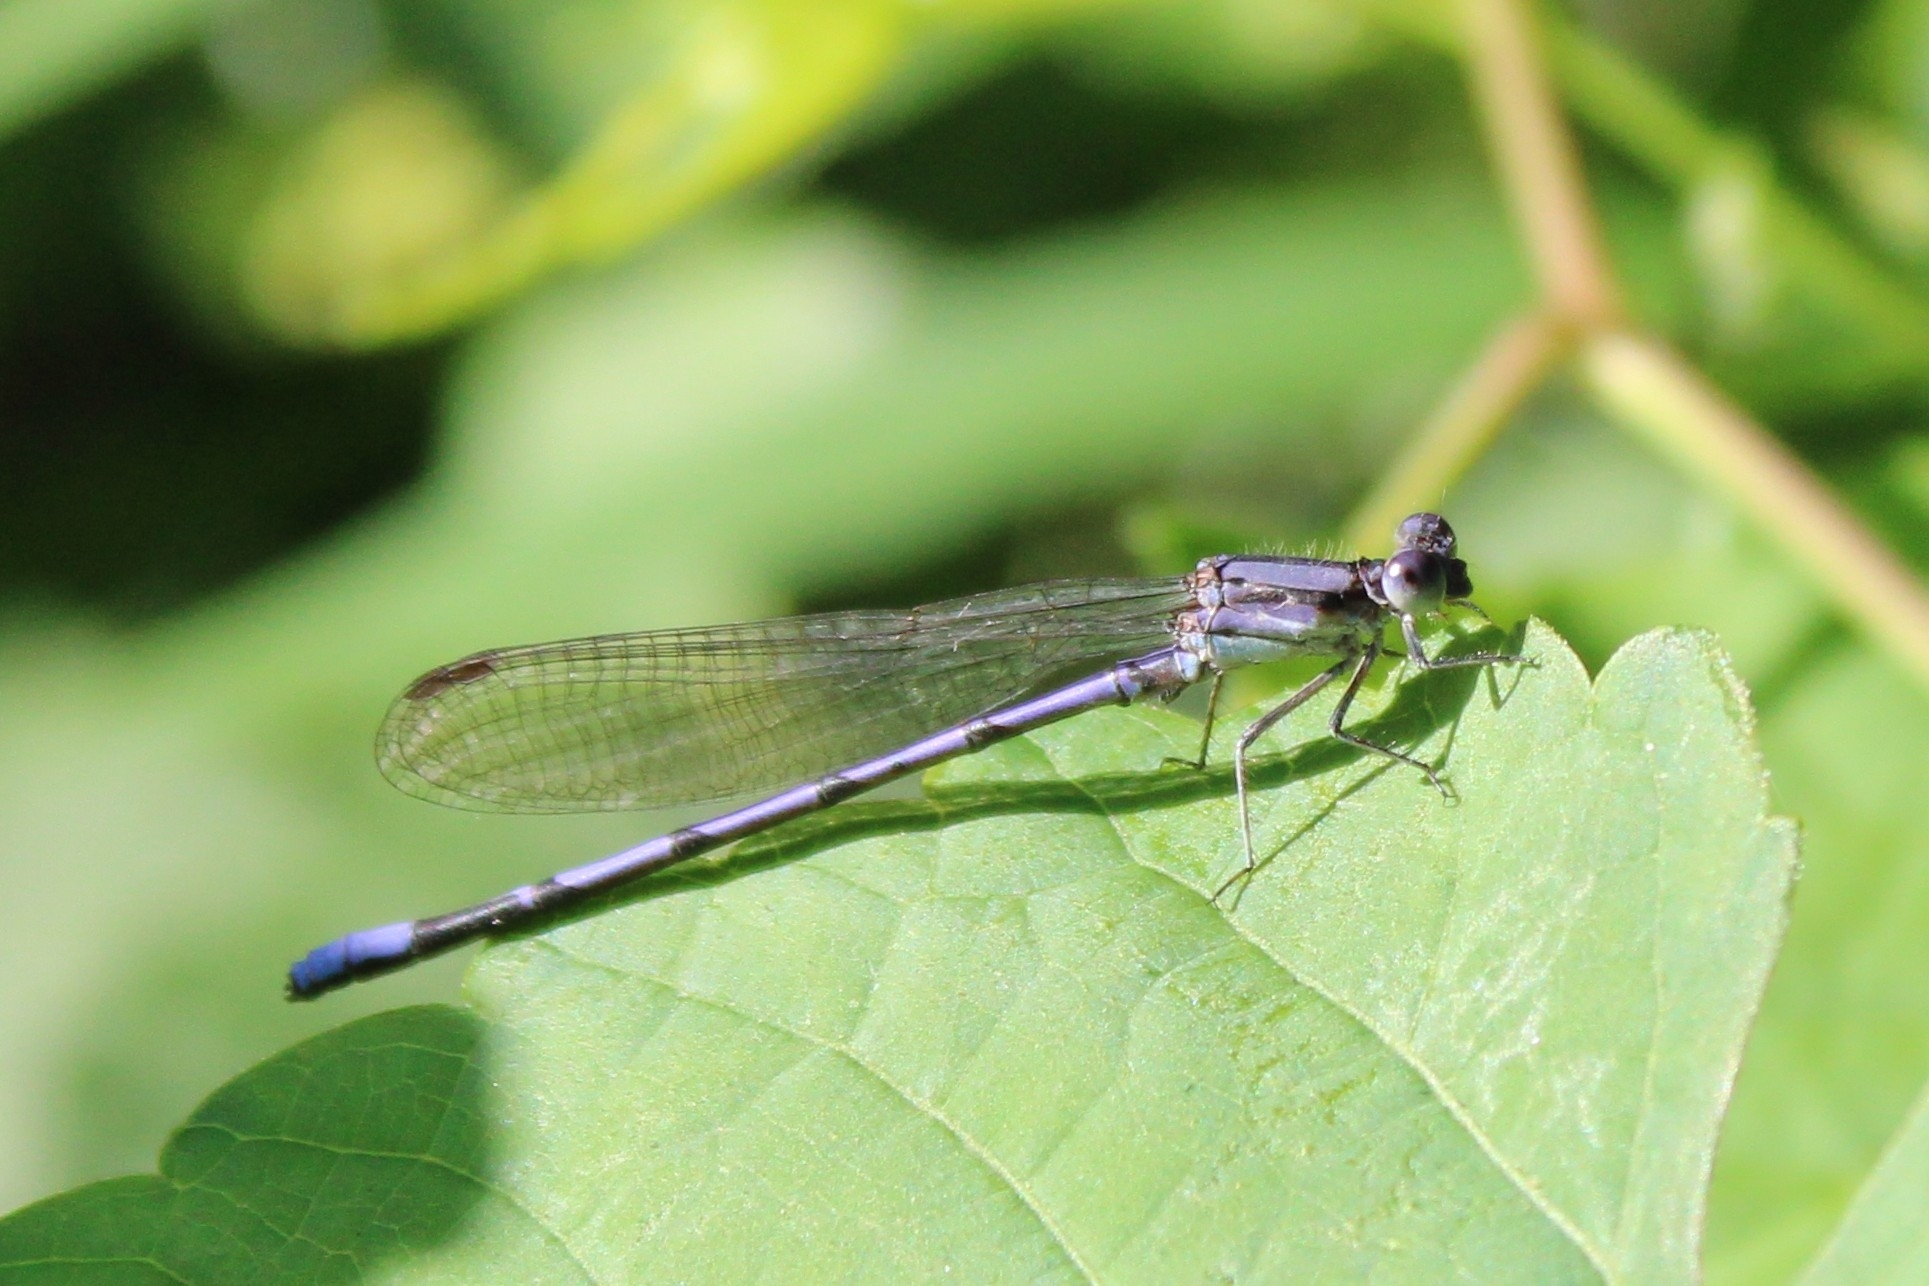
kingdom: Animalia
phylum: Arthropoda
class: Insecta
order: Odonata
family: Coenagrionidae
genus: Argia
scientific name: Argia fumipennis
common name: Variable dancer
